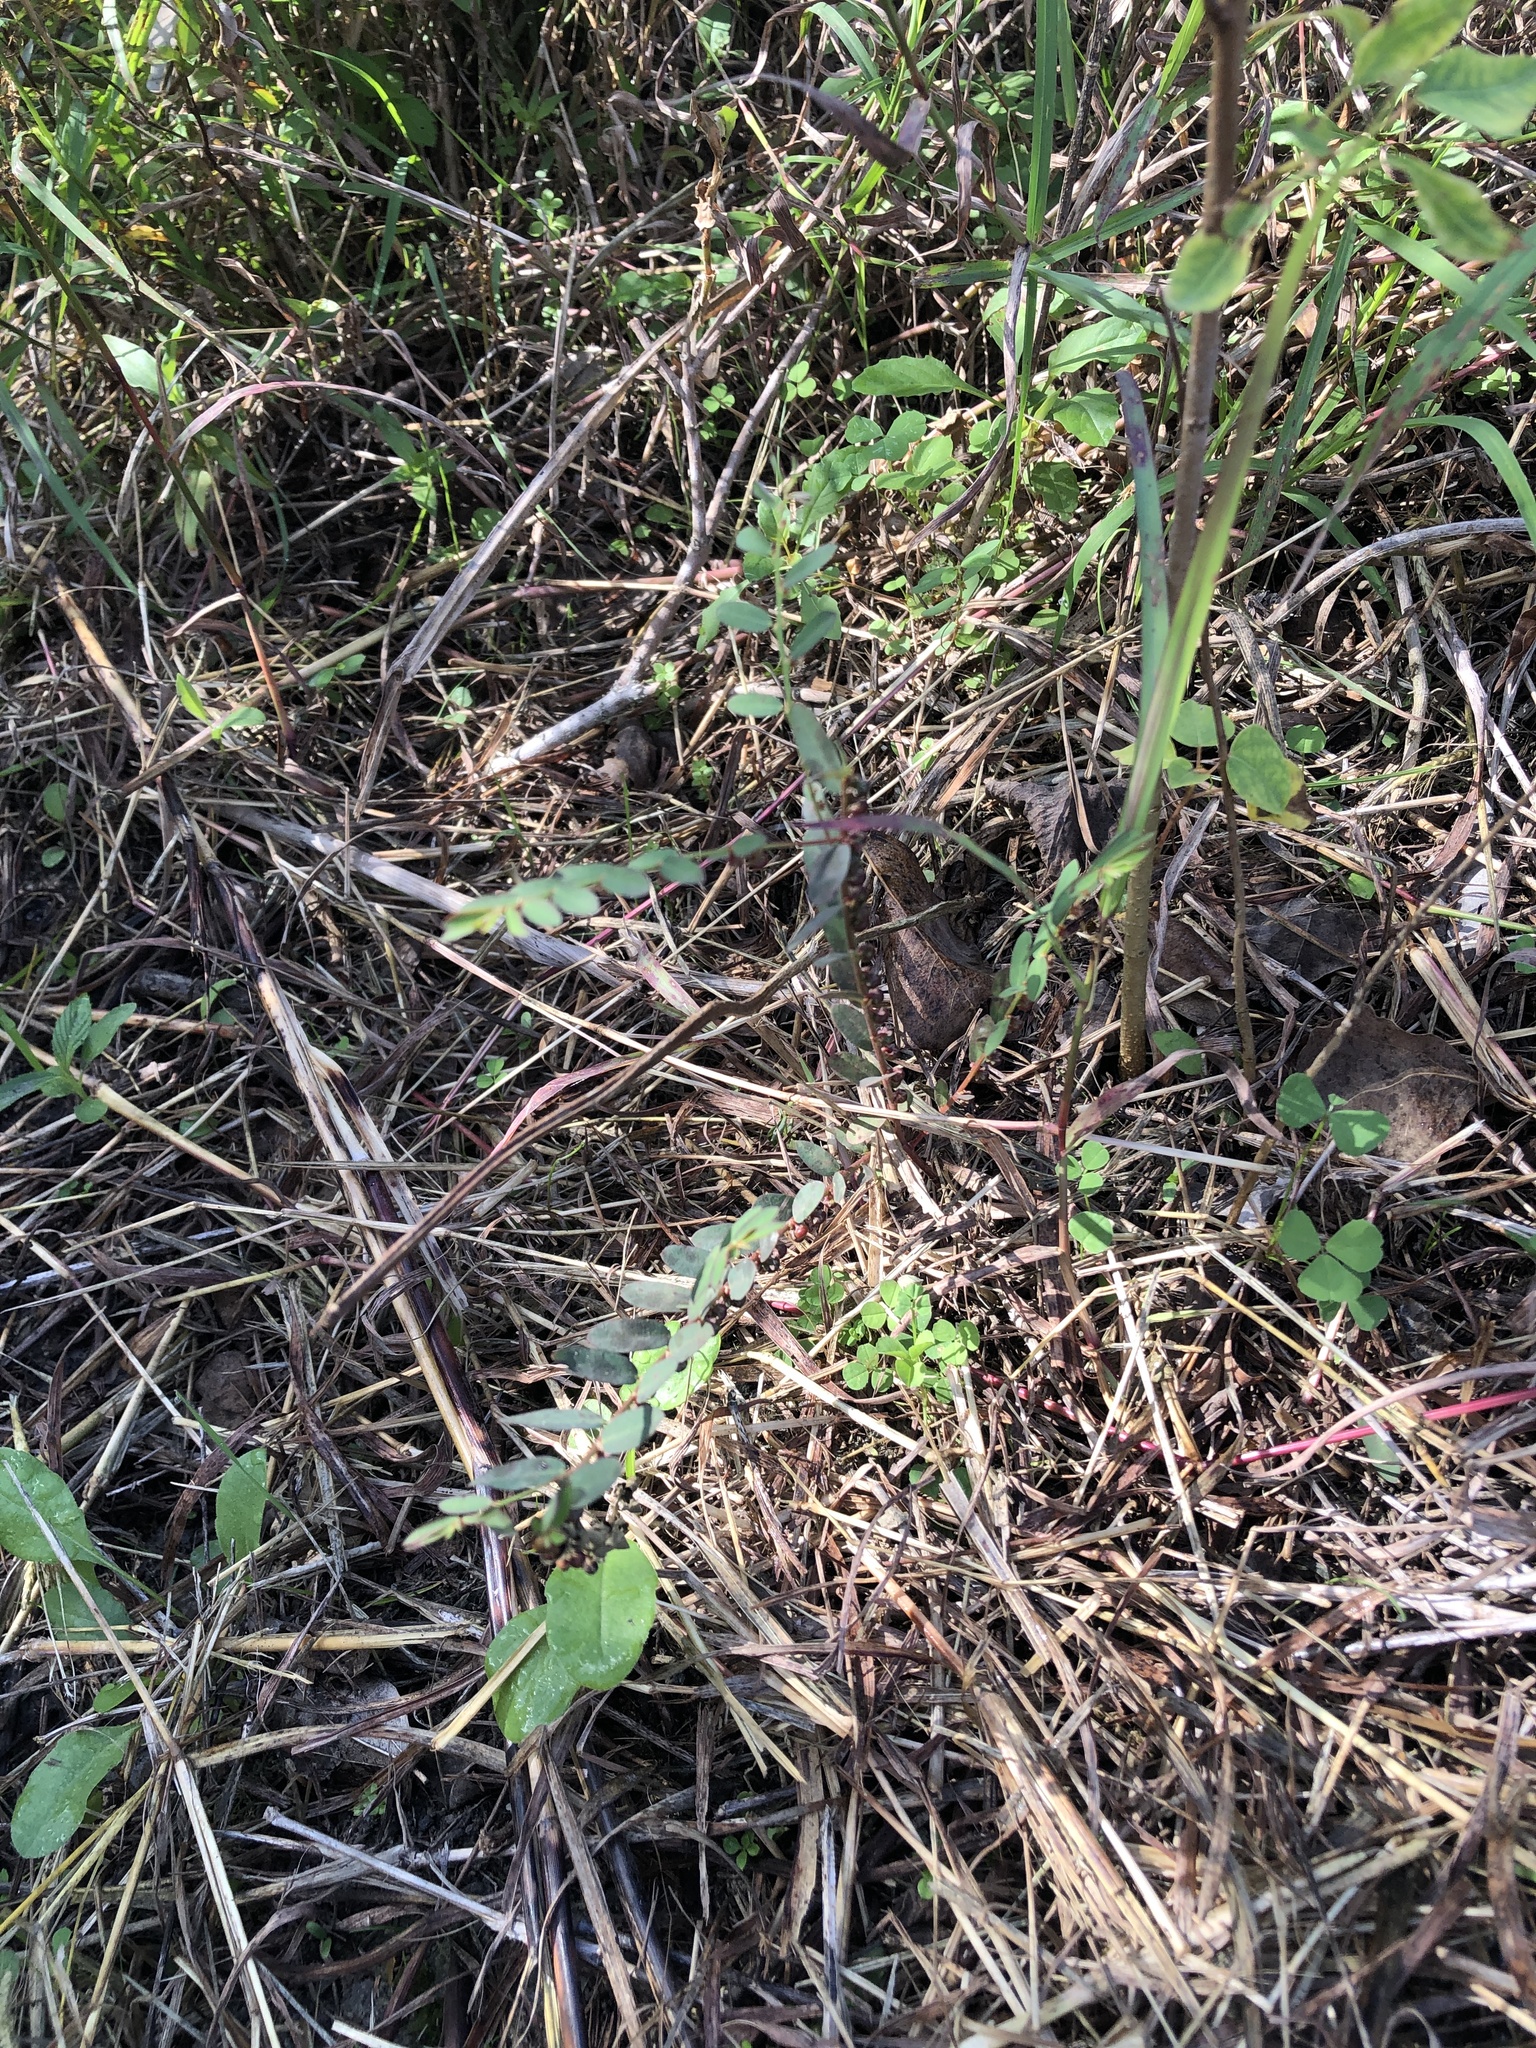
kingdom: Plantae
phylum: Tracheophyta
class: Magnoliopsida
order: Malpighiales
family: Phyllanthaceae
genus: Phyllanthus
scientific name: Phyllanthus evanescens
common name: Birdseed leaf-flower
